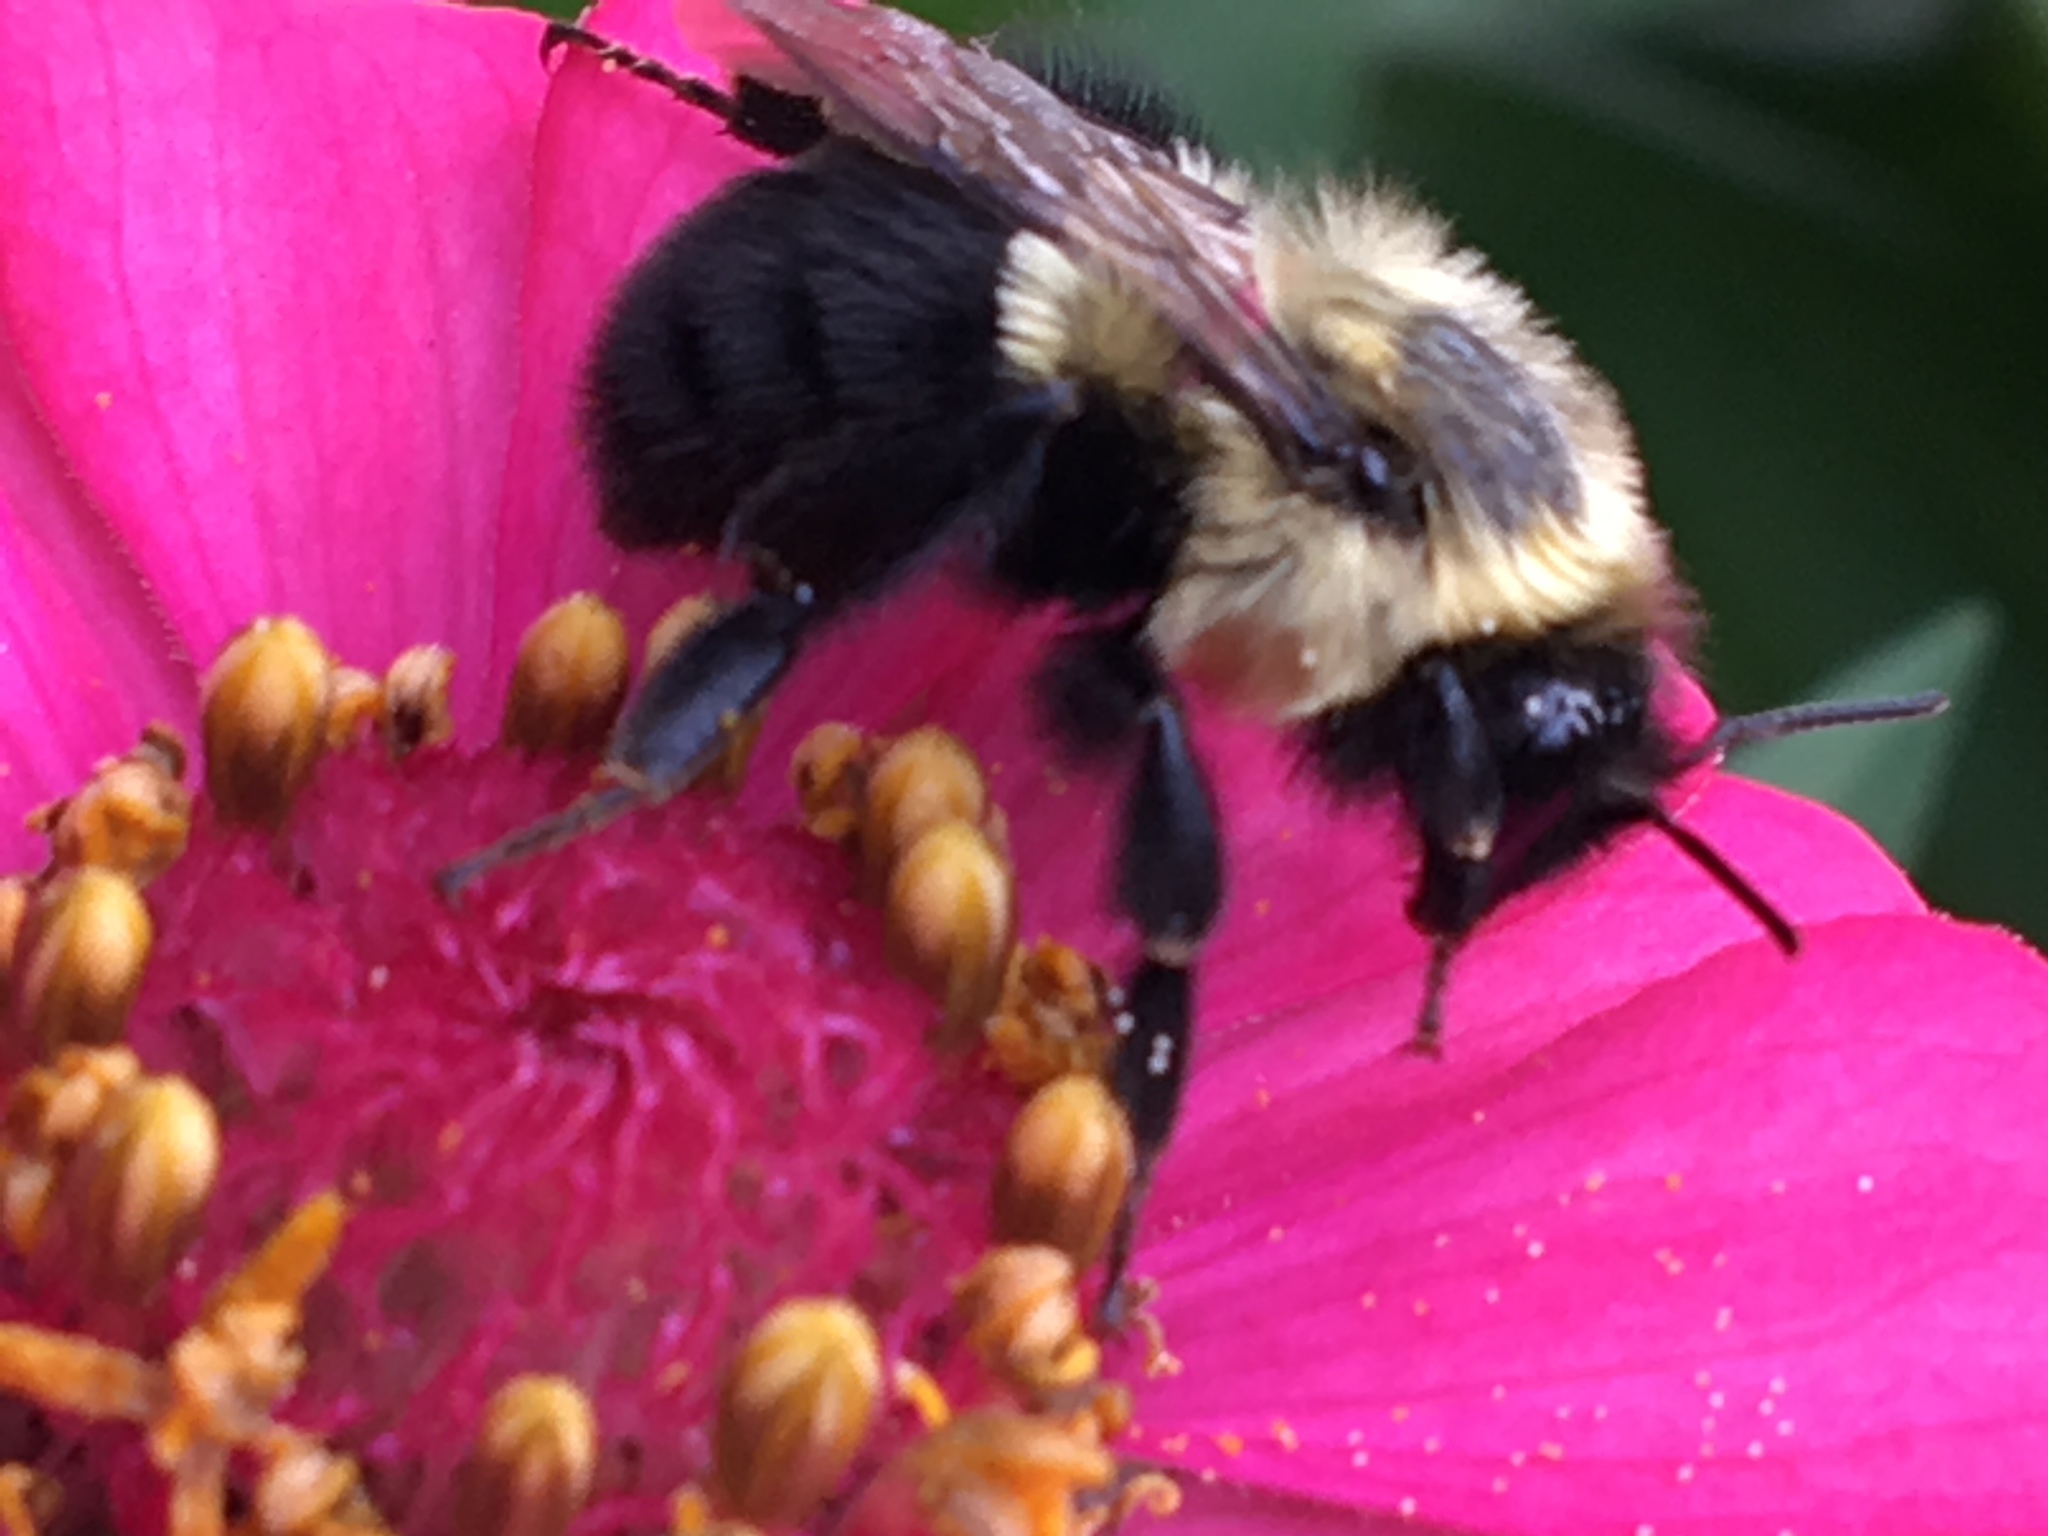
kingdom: Animalia
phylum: Arthropoda
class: Insecta
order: Hymenoptera
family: Apidae
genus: Bombus
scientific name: Bombus impatiens
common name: Common eastern bumble bee
